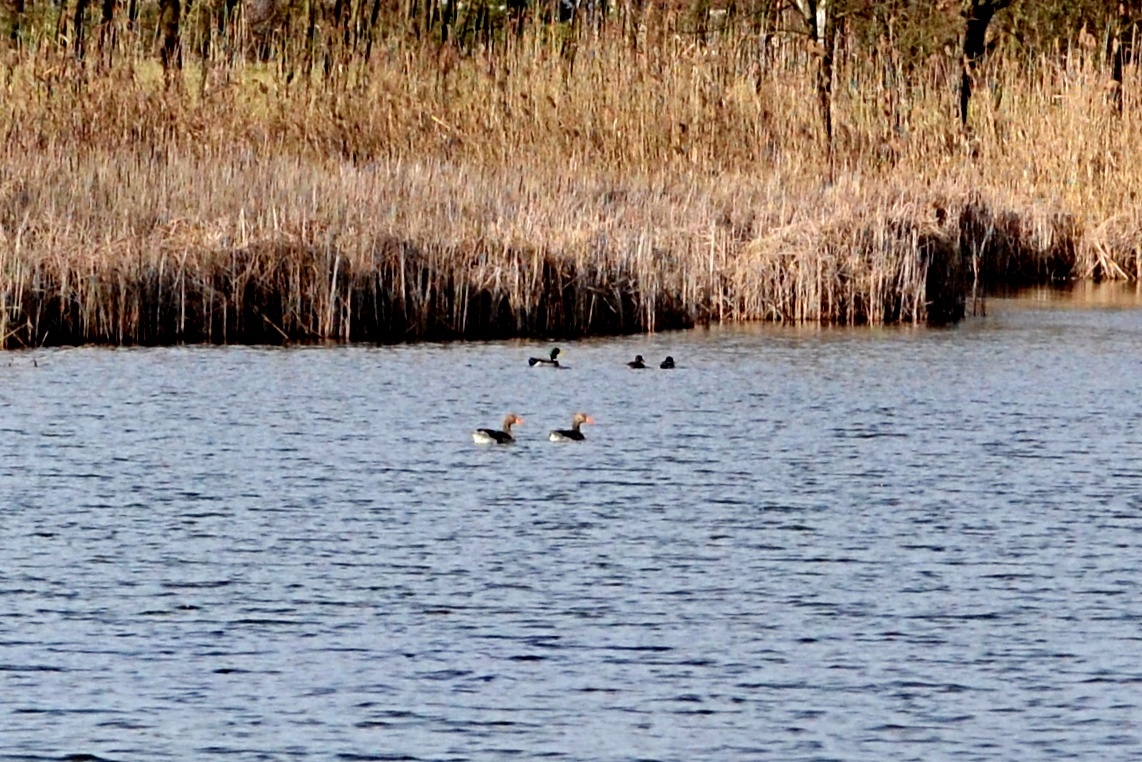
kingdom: Animalia
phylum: Chordata
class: Aves
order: Anseriformes
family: Anatidae
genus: Anser
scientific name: Anser anser
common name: Greylag goose
